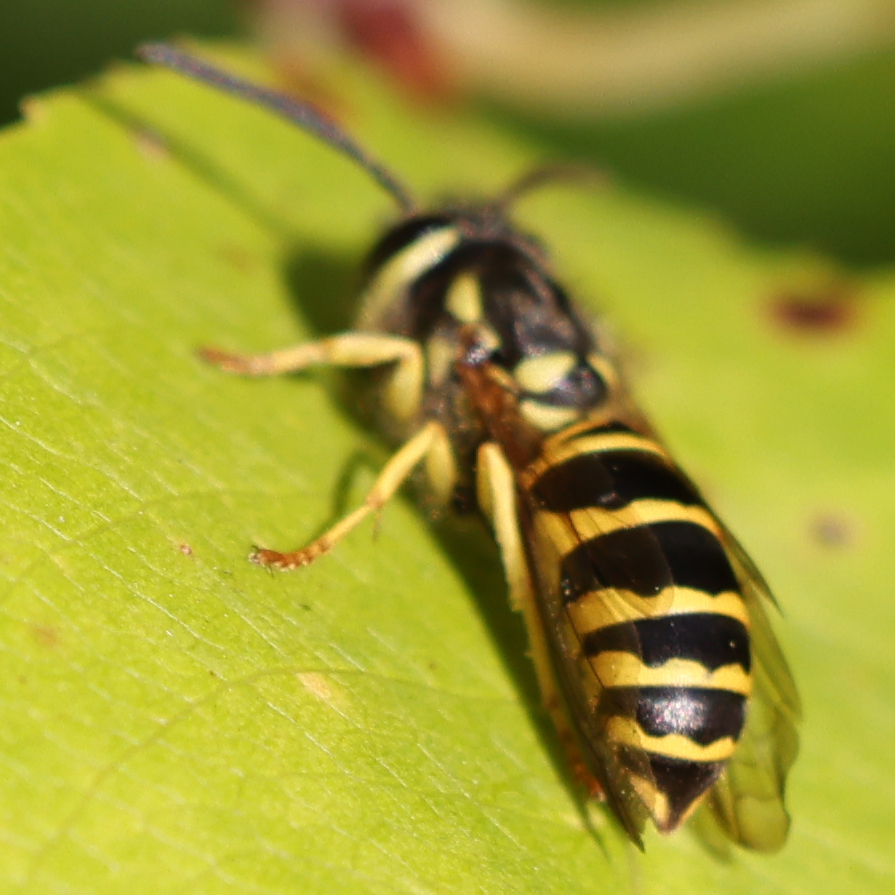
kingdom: Animalia
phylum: Arthropoda
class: Insecta
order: Hymenoptera
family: Vespidae
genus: Vespula
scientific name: Vespula maculifrons
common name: Eastern yellowjacket
